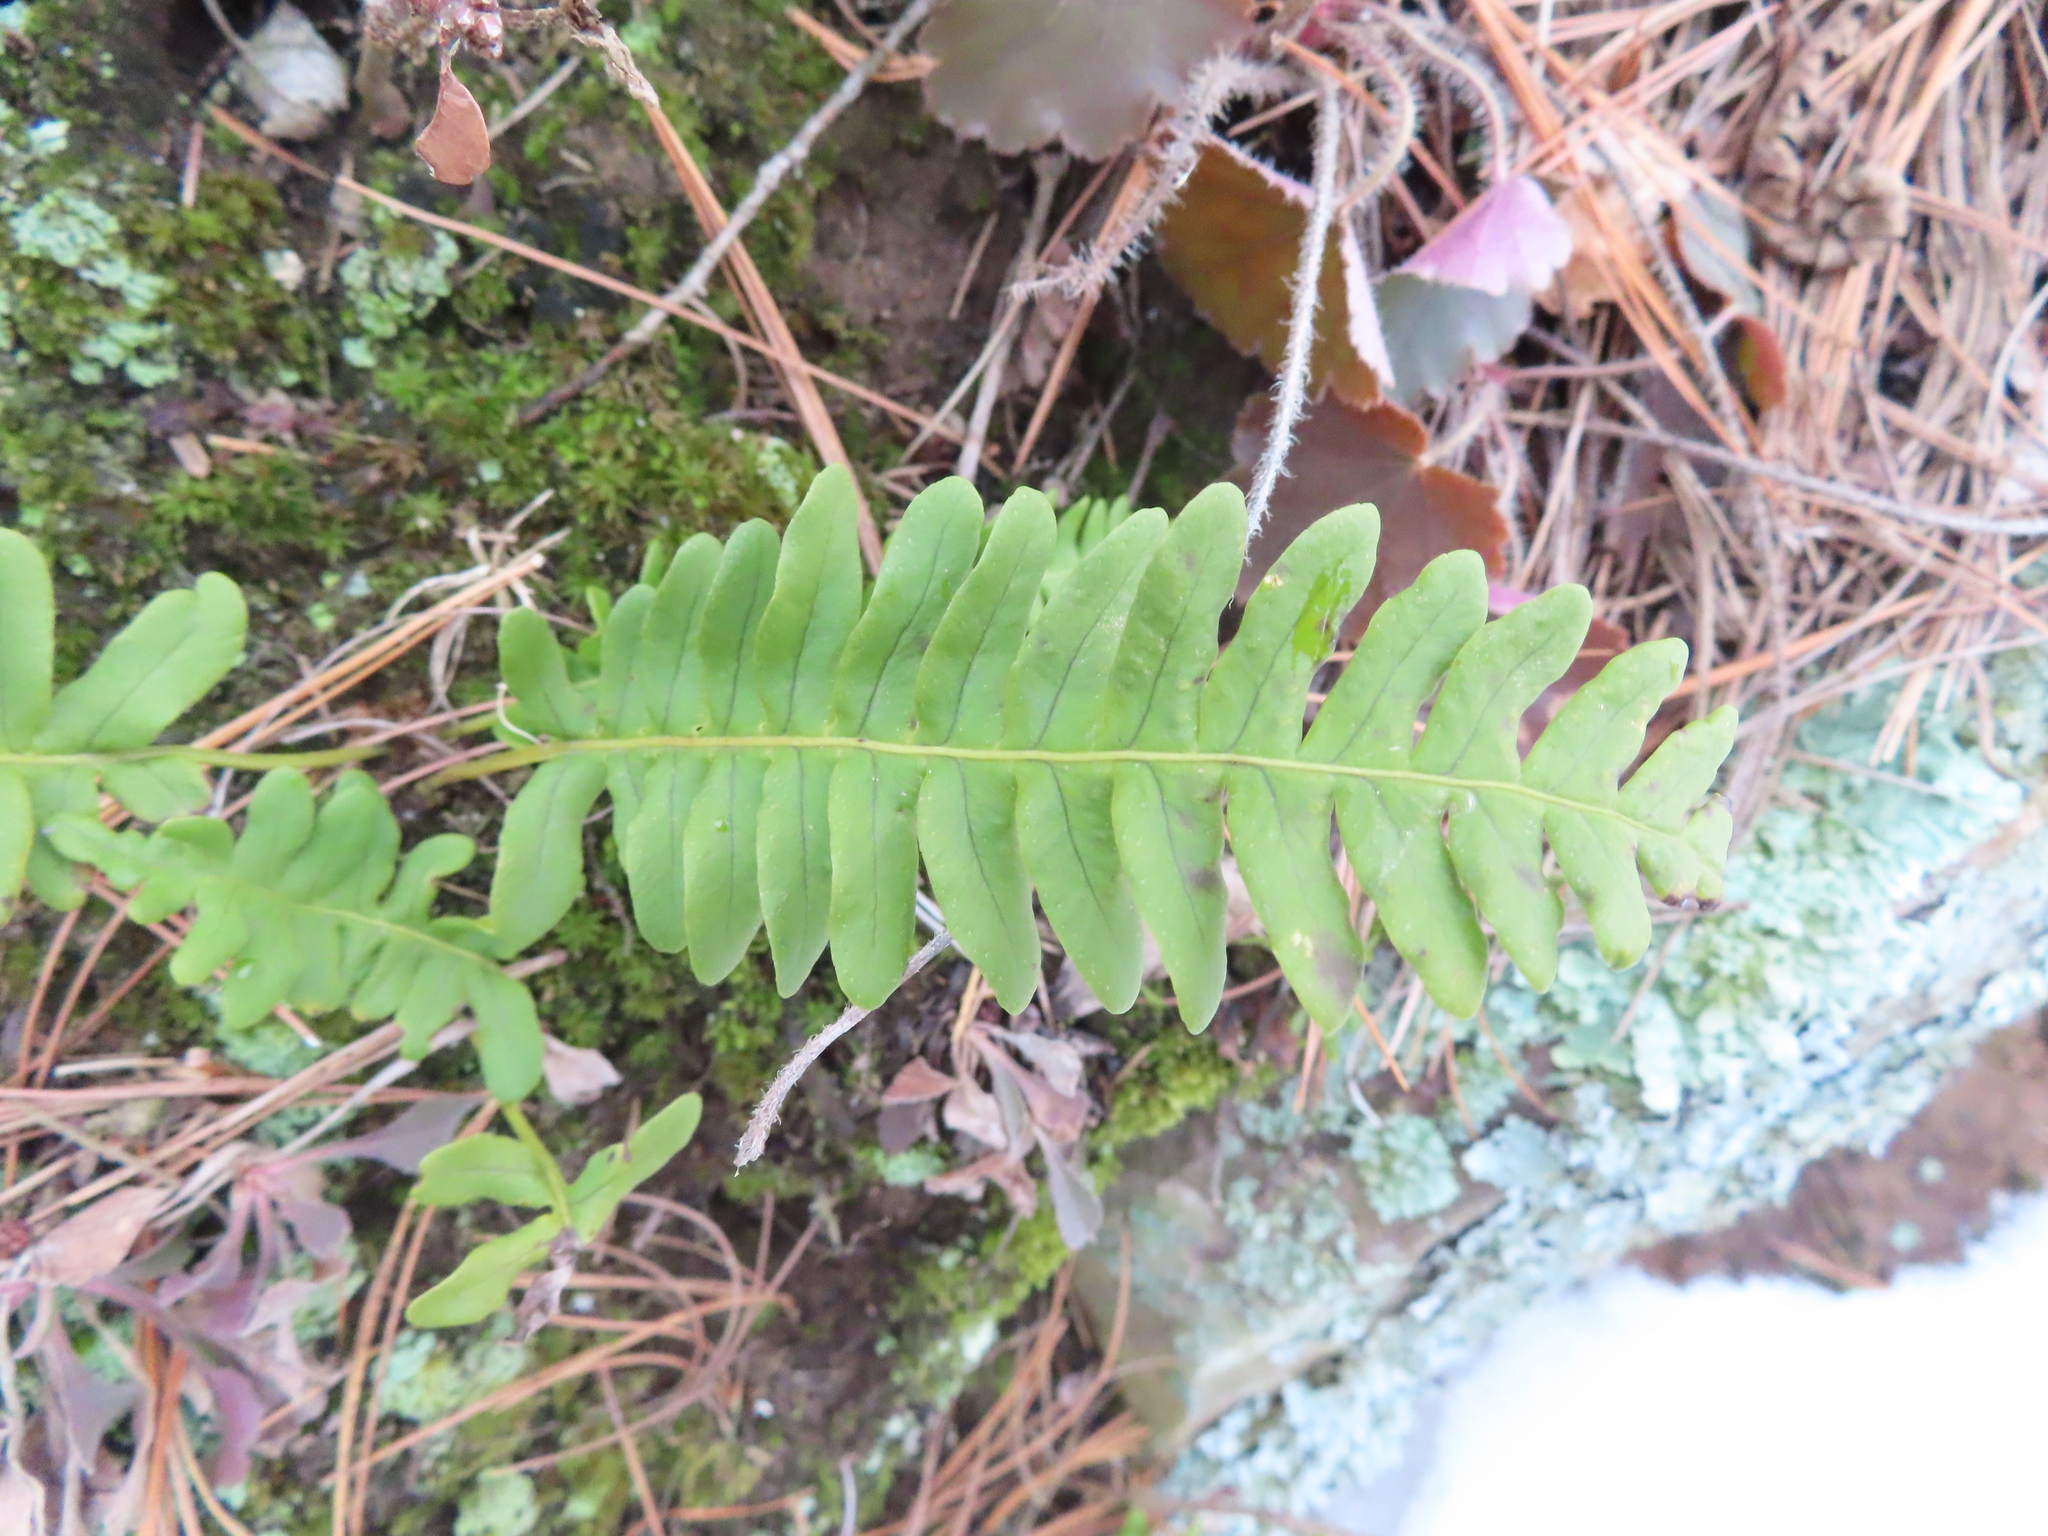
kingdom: Plantae
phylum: Tracheophyta
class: Polypodiopsida
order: Polypodiales
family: Polypodiaceae
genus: Polypodium
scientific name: Polypodium virginianum
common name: American wall fern
